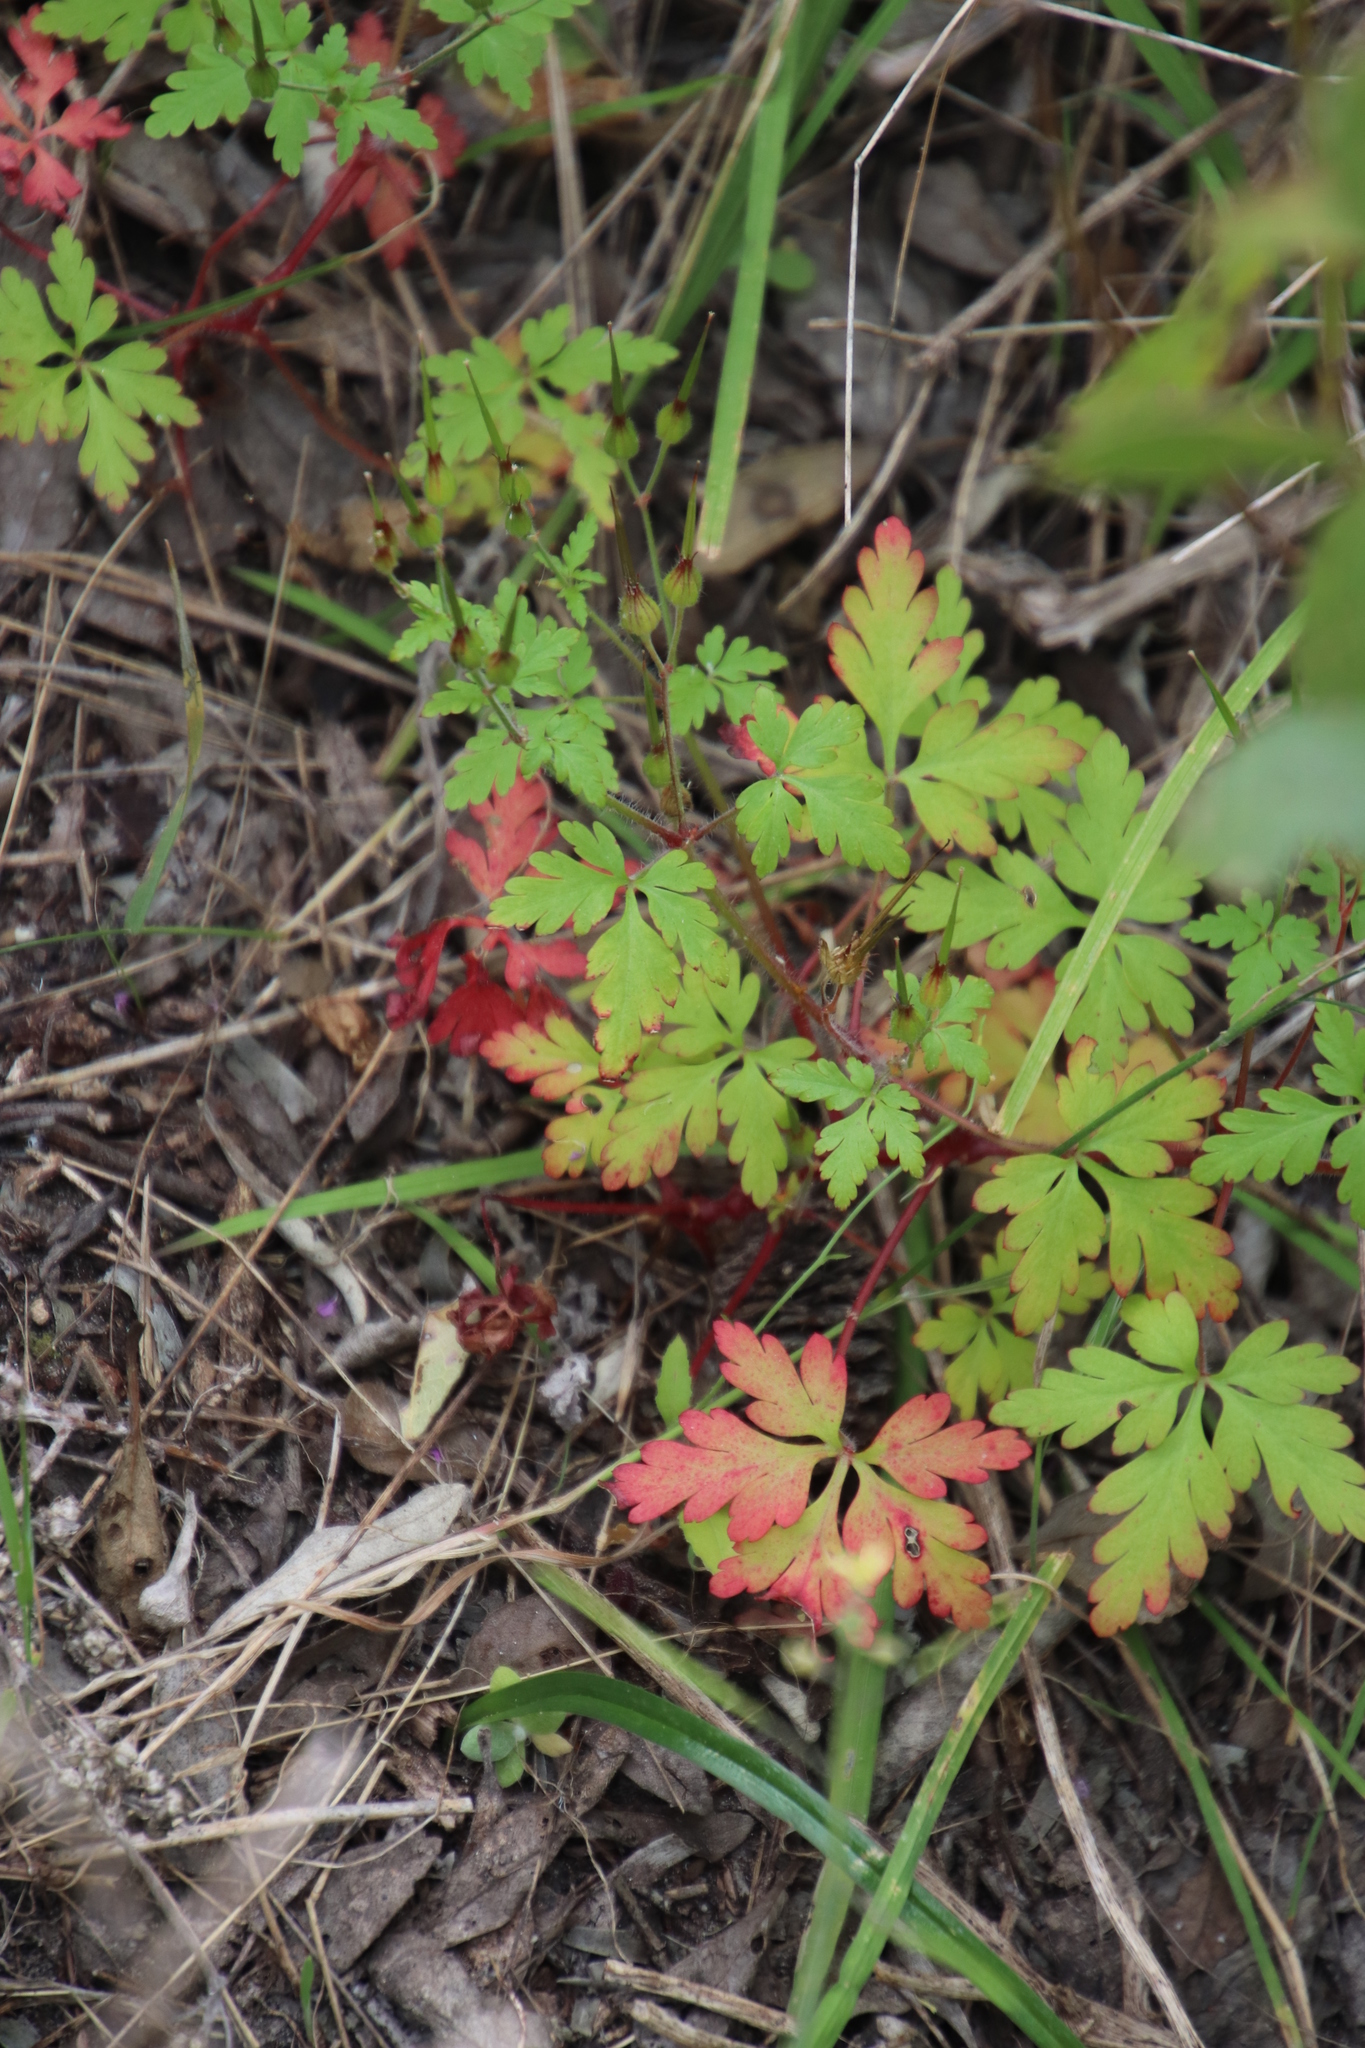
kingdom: Plantae
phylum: Tracheophyta
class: Magnoliopsida
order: Geraniales
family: Geraniaceae
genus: Geranium
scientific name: Geranium purpureum
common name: Little-robin
